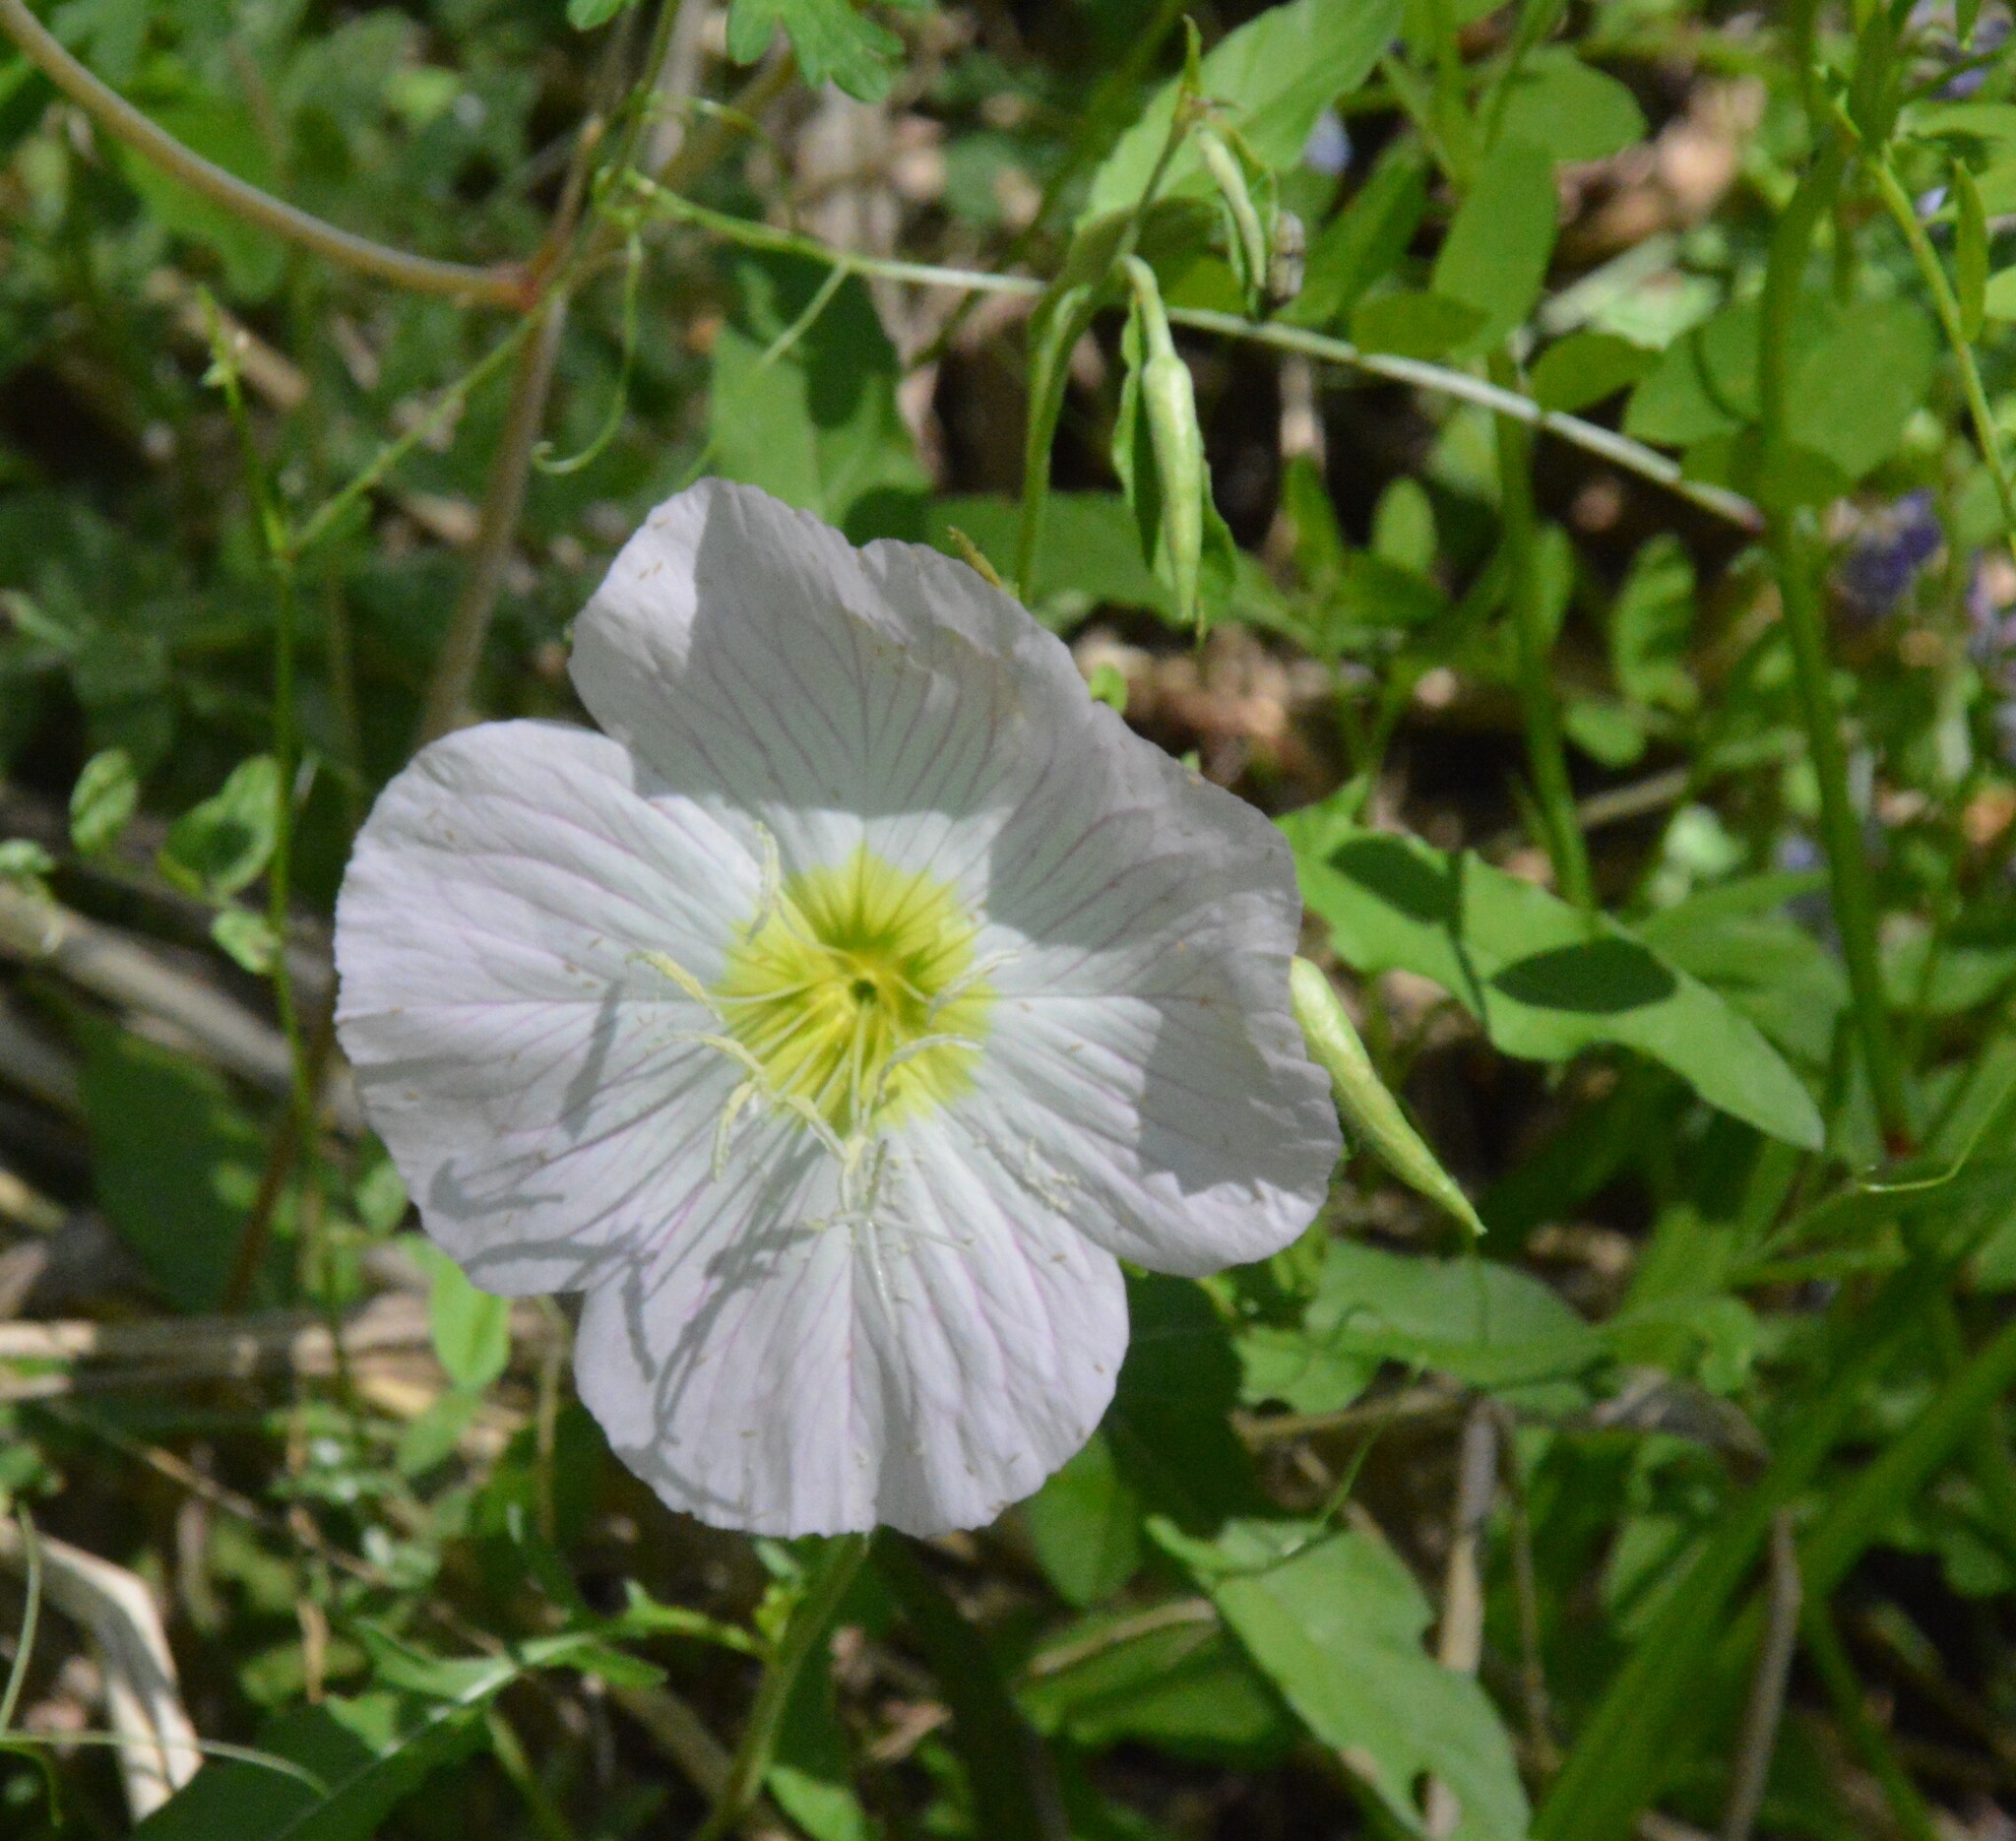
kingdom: Plantae
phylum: Tracheophyta
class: Magnoliopsida
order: Myrtales
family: Onagraceae
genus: Oenothera
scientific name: Oenothera speciosa
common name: White evening-primrose
